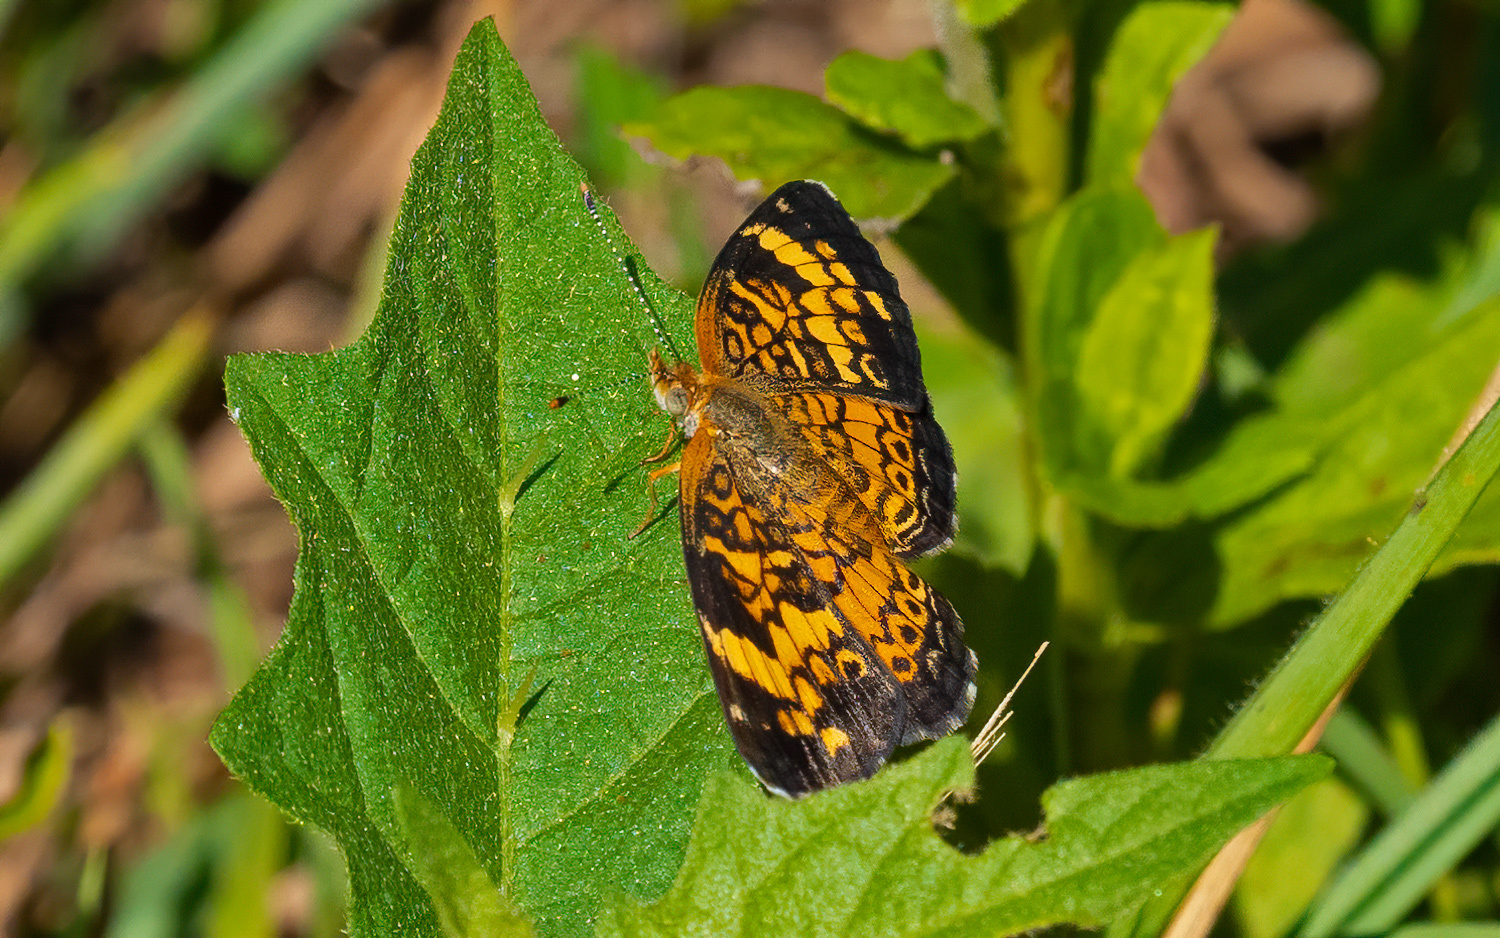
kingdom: Animalia
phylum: Arthropoda
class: Insecta
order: Lepidoptera
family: Nymphalidae
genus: Phyciodes
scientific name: Phyciodes tharos
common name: Pearl crescent
